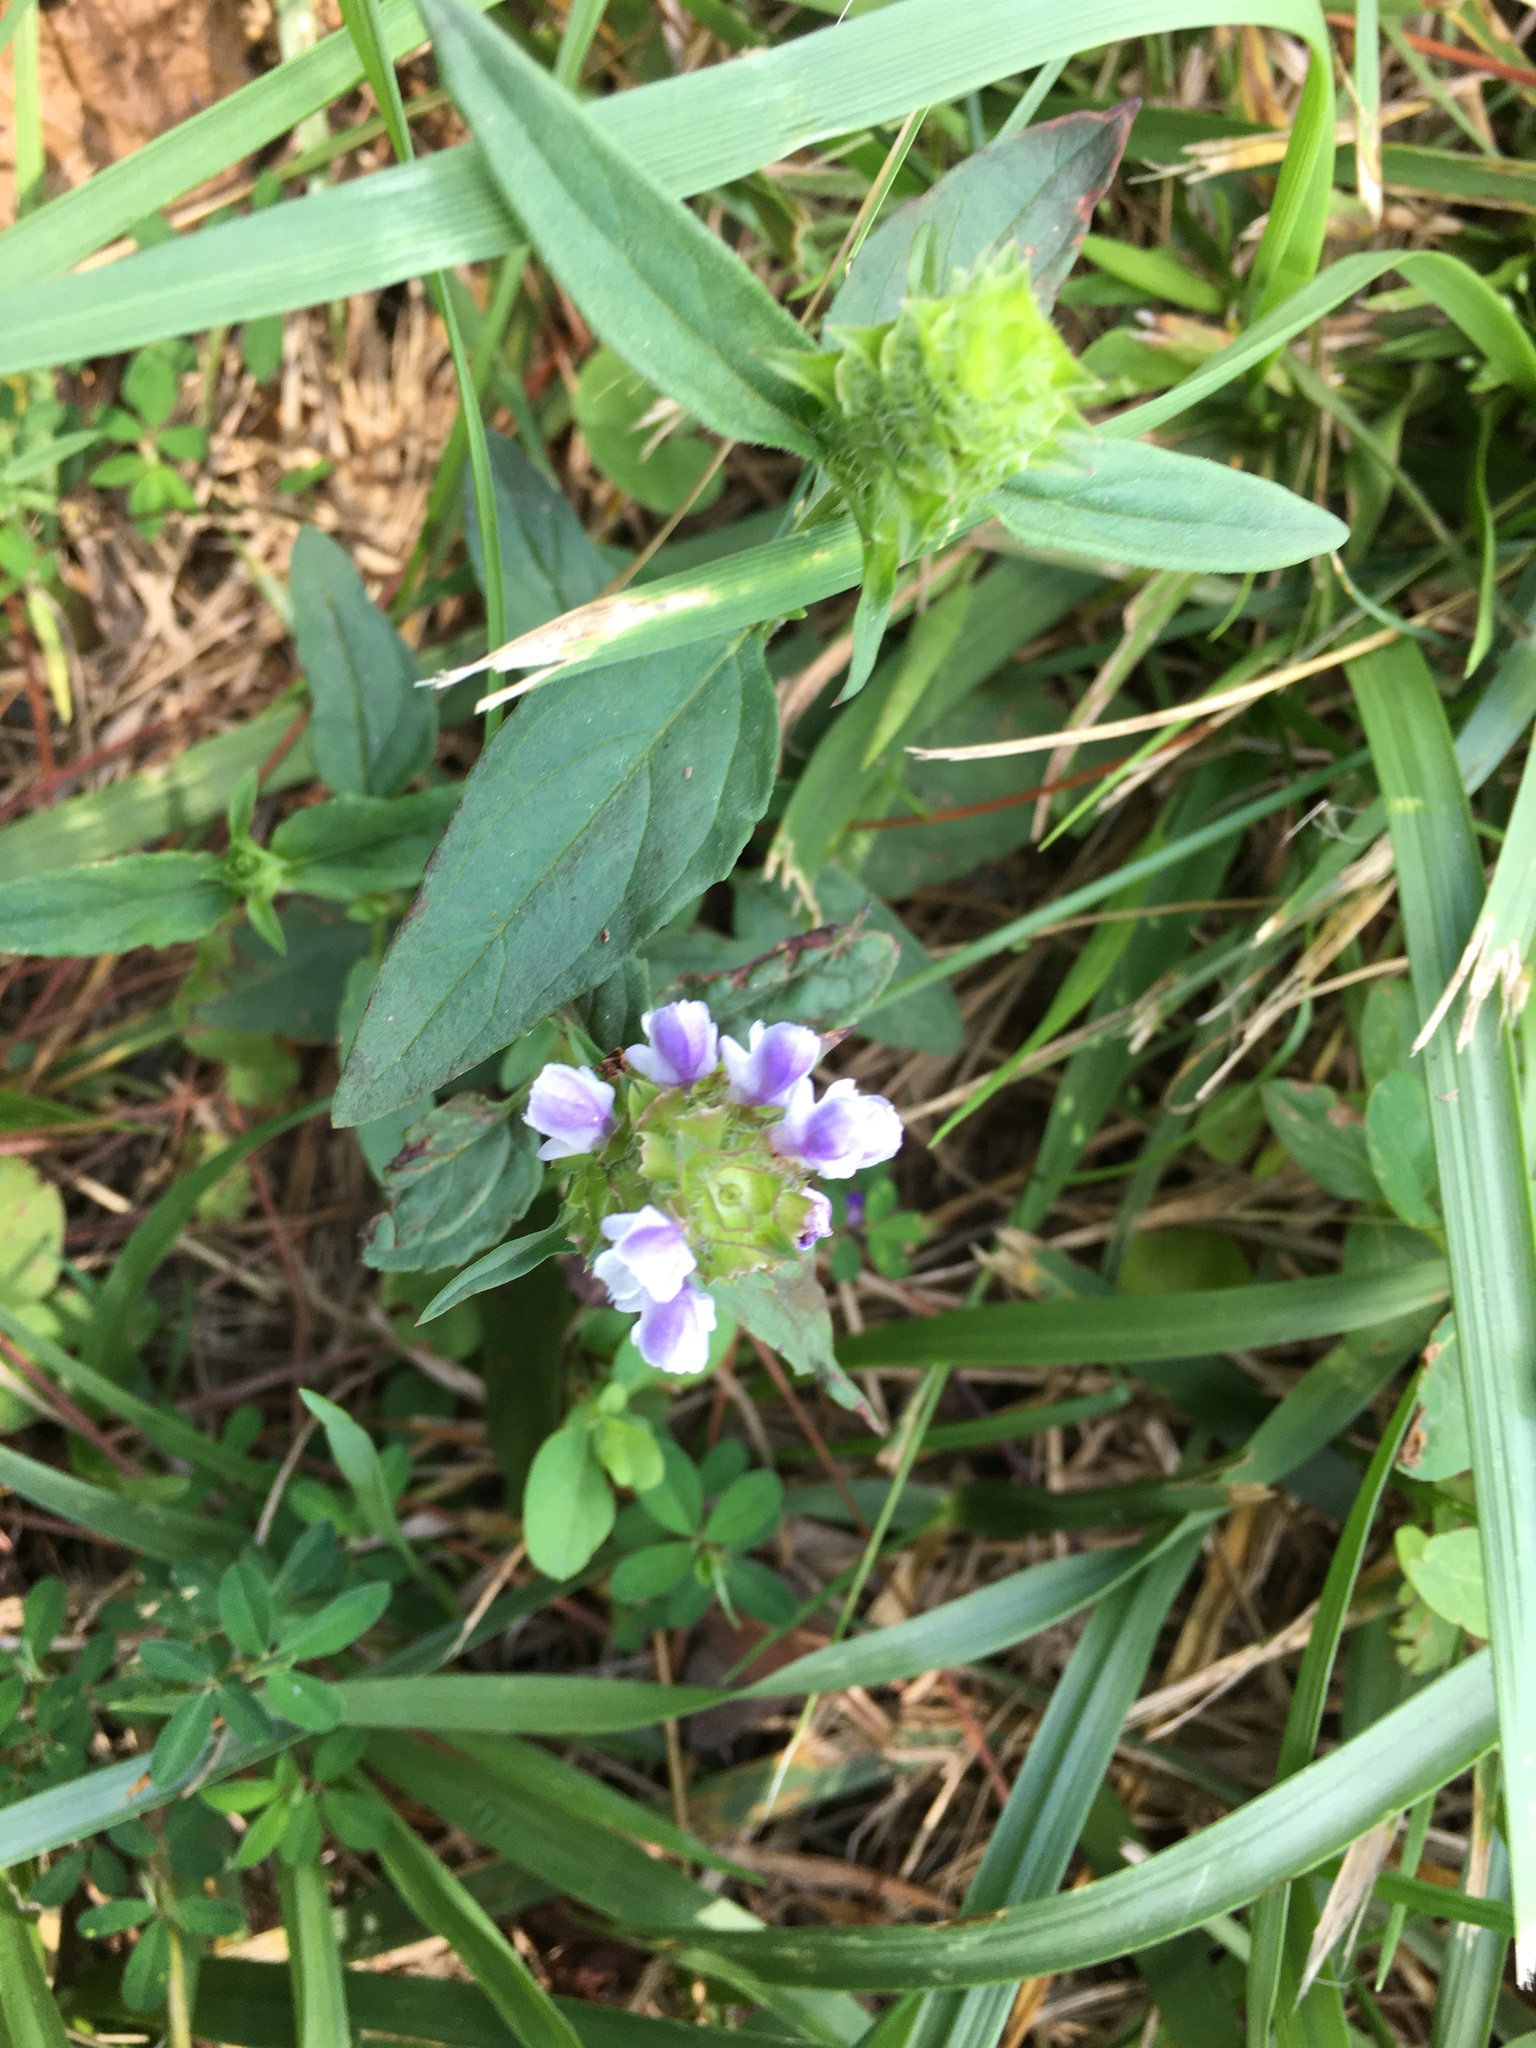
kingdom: Plantae
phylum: Tracheophyta
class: Magnoliopsida
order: Lamiales
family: Lamiaceae
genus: Prunella
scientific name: Prunella vulgaris
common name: Heal-all
